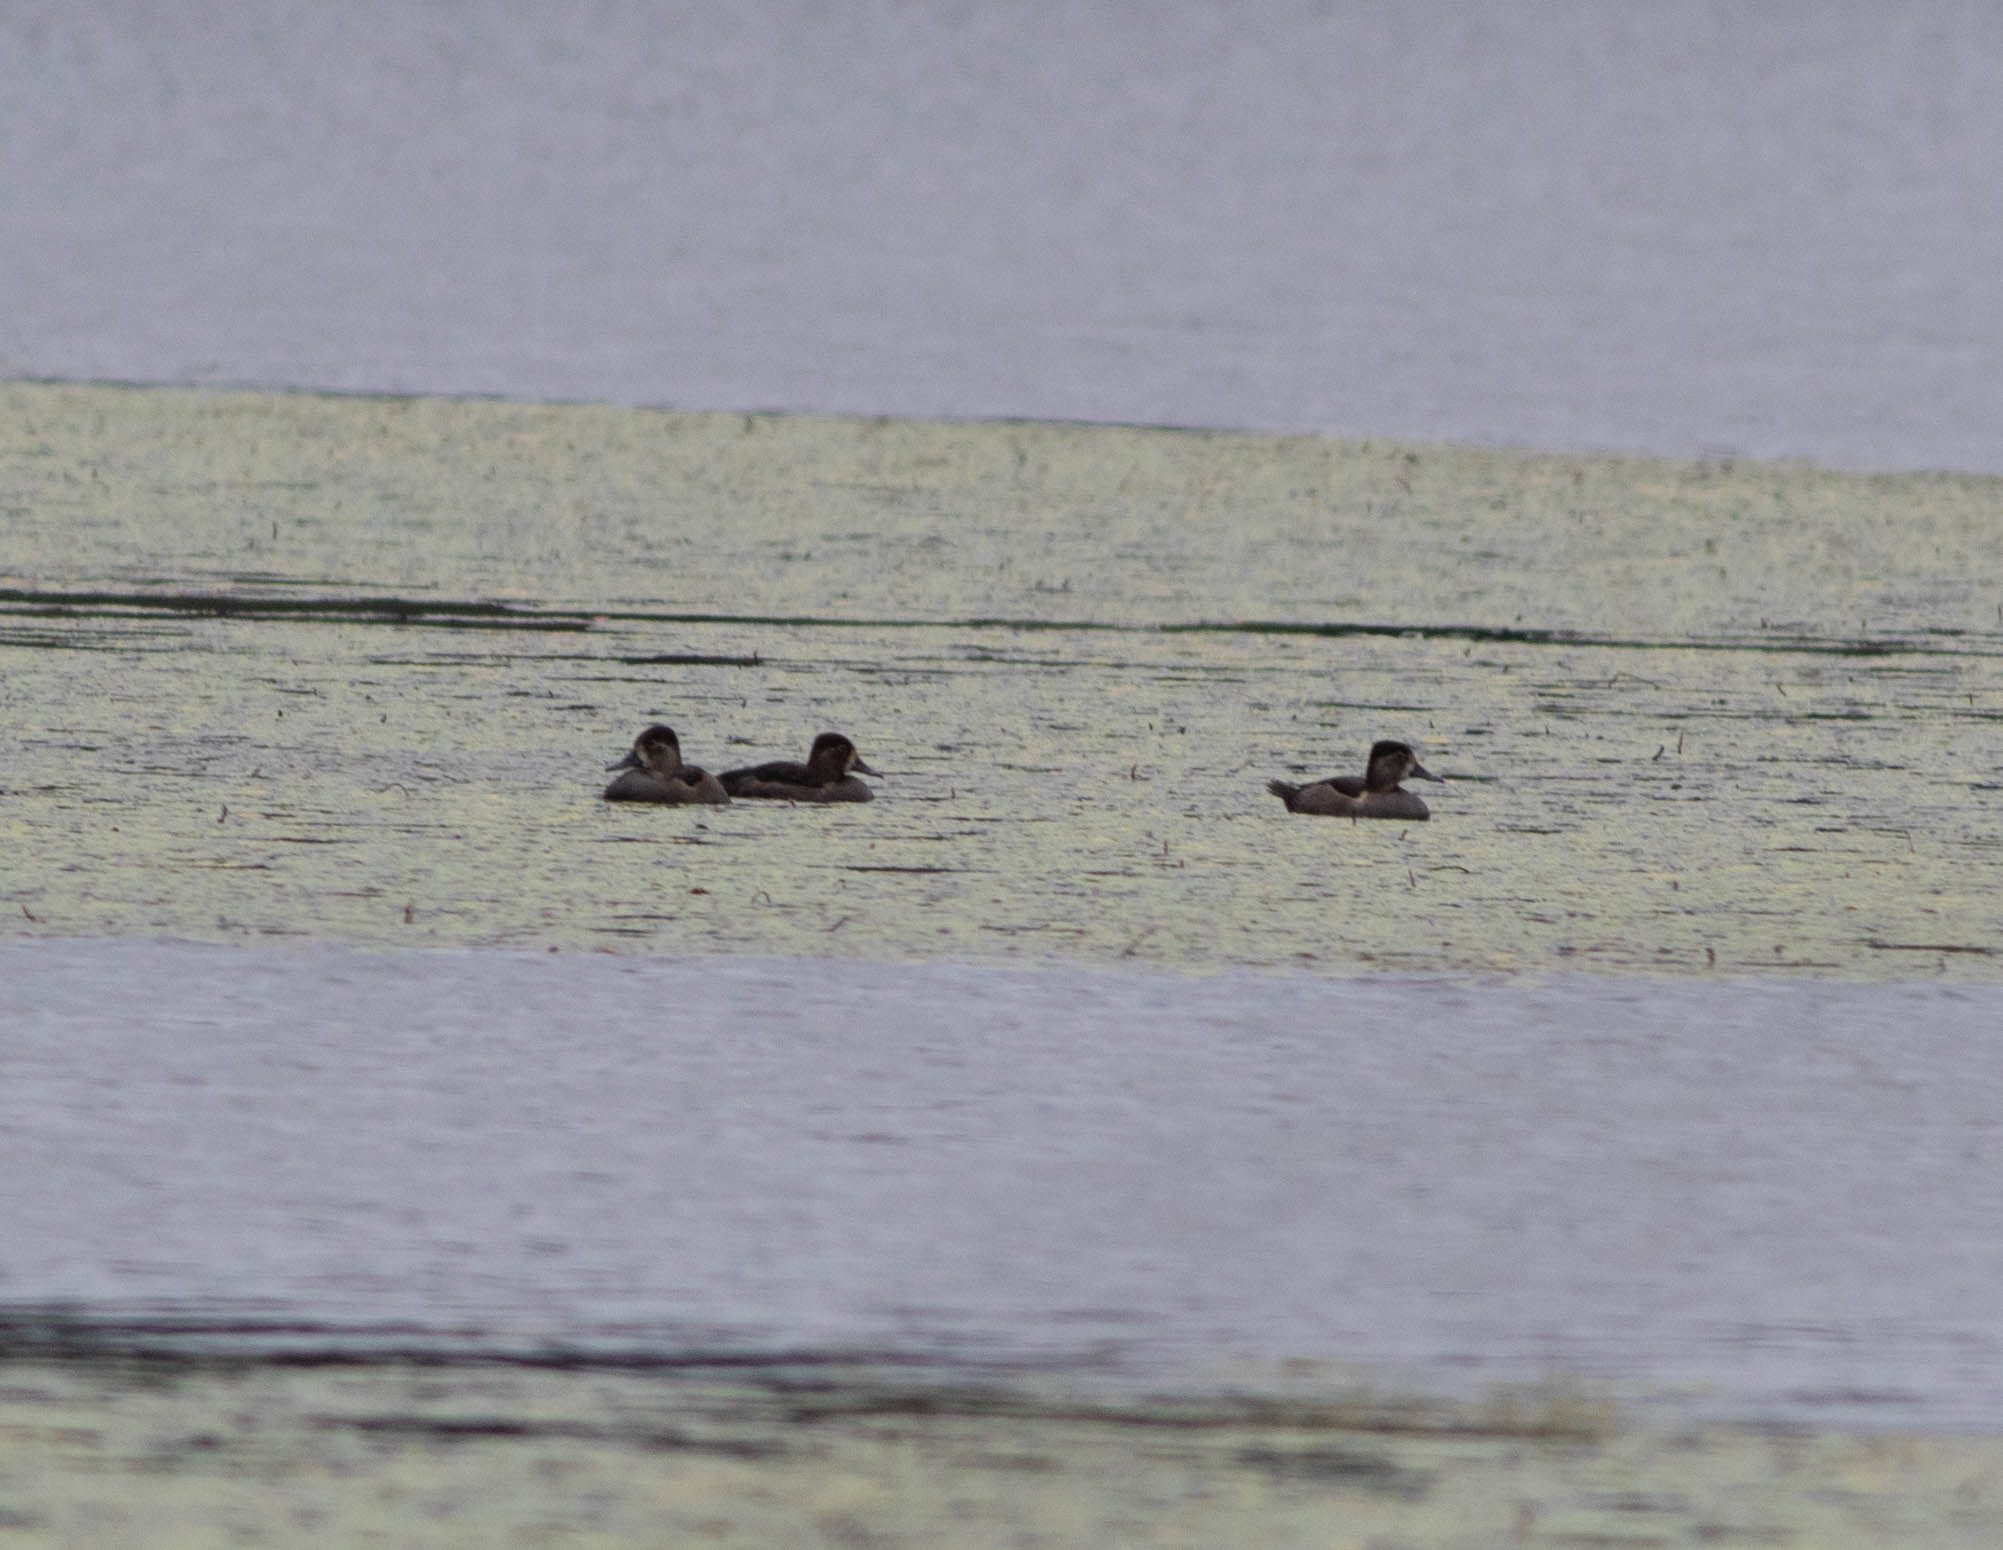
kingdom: Animalia
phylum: Chordata
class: Aves
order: Anseriformes
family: Anatidae
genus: Aythya
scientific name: Aythya collaris
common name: Ring-necked duck
